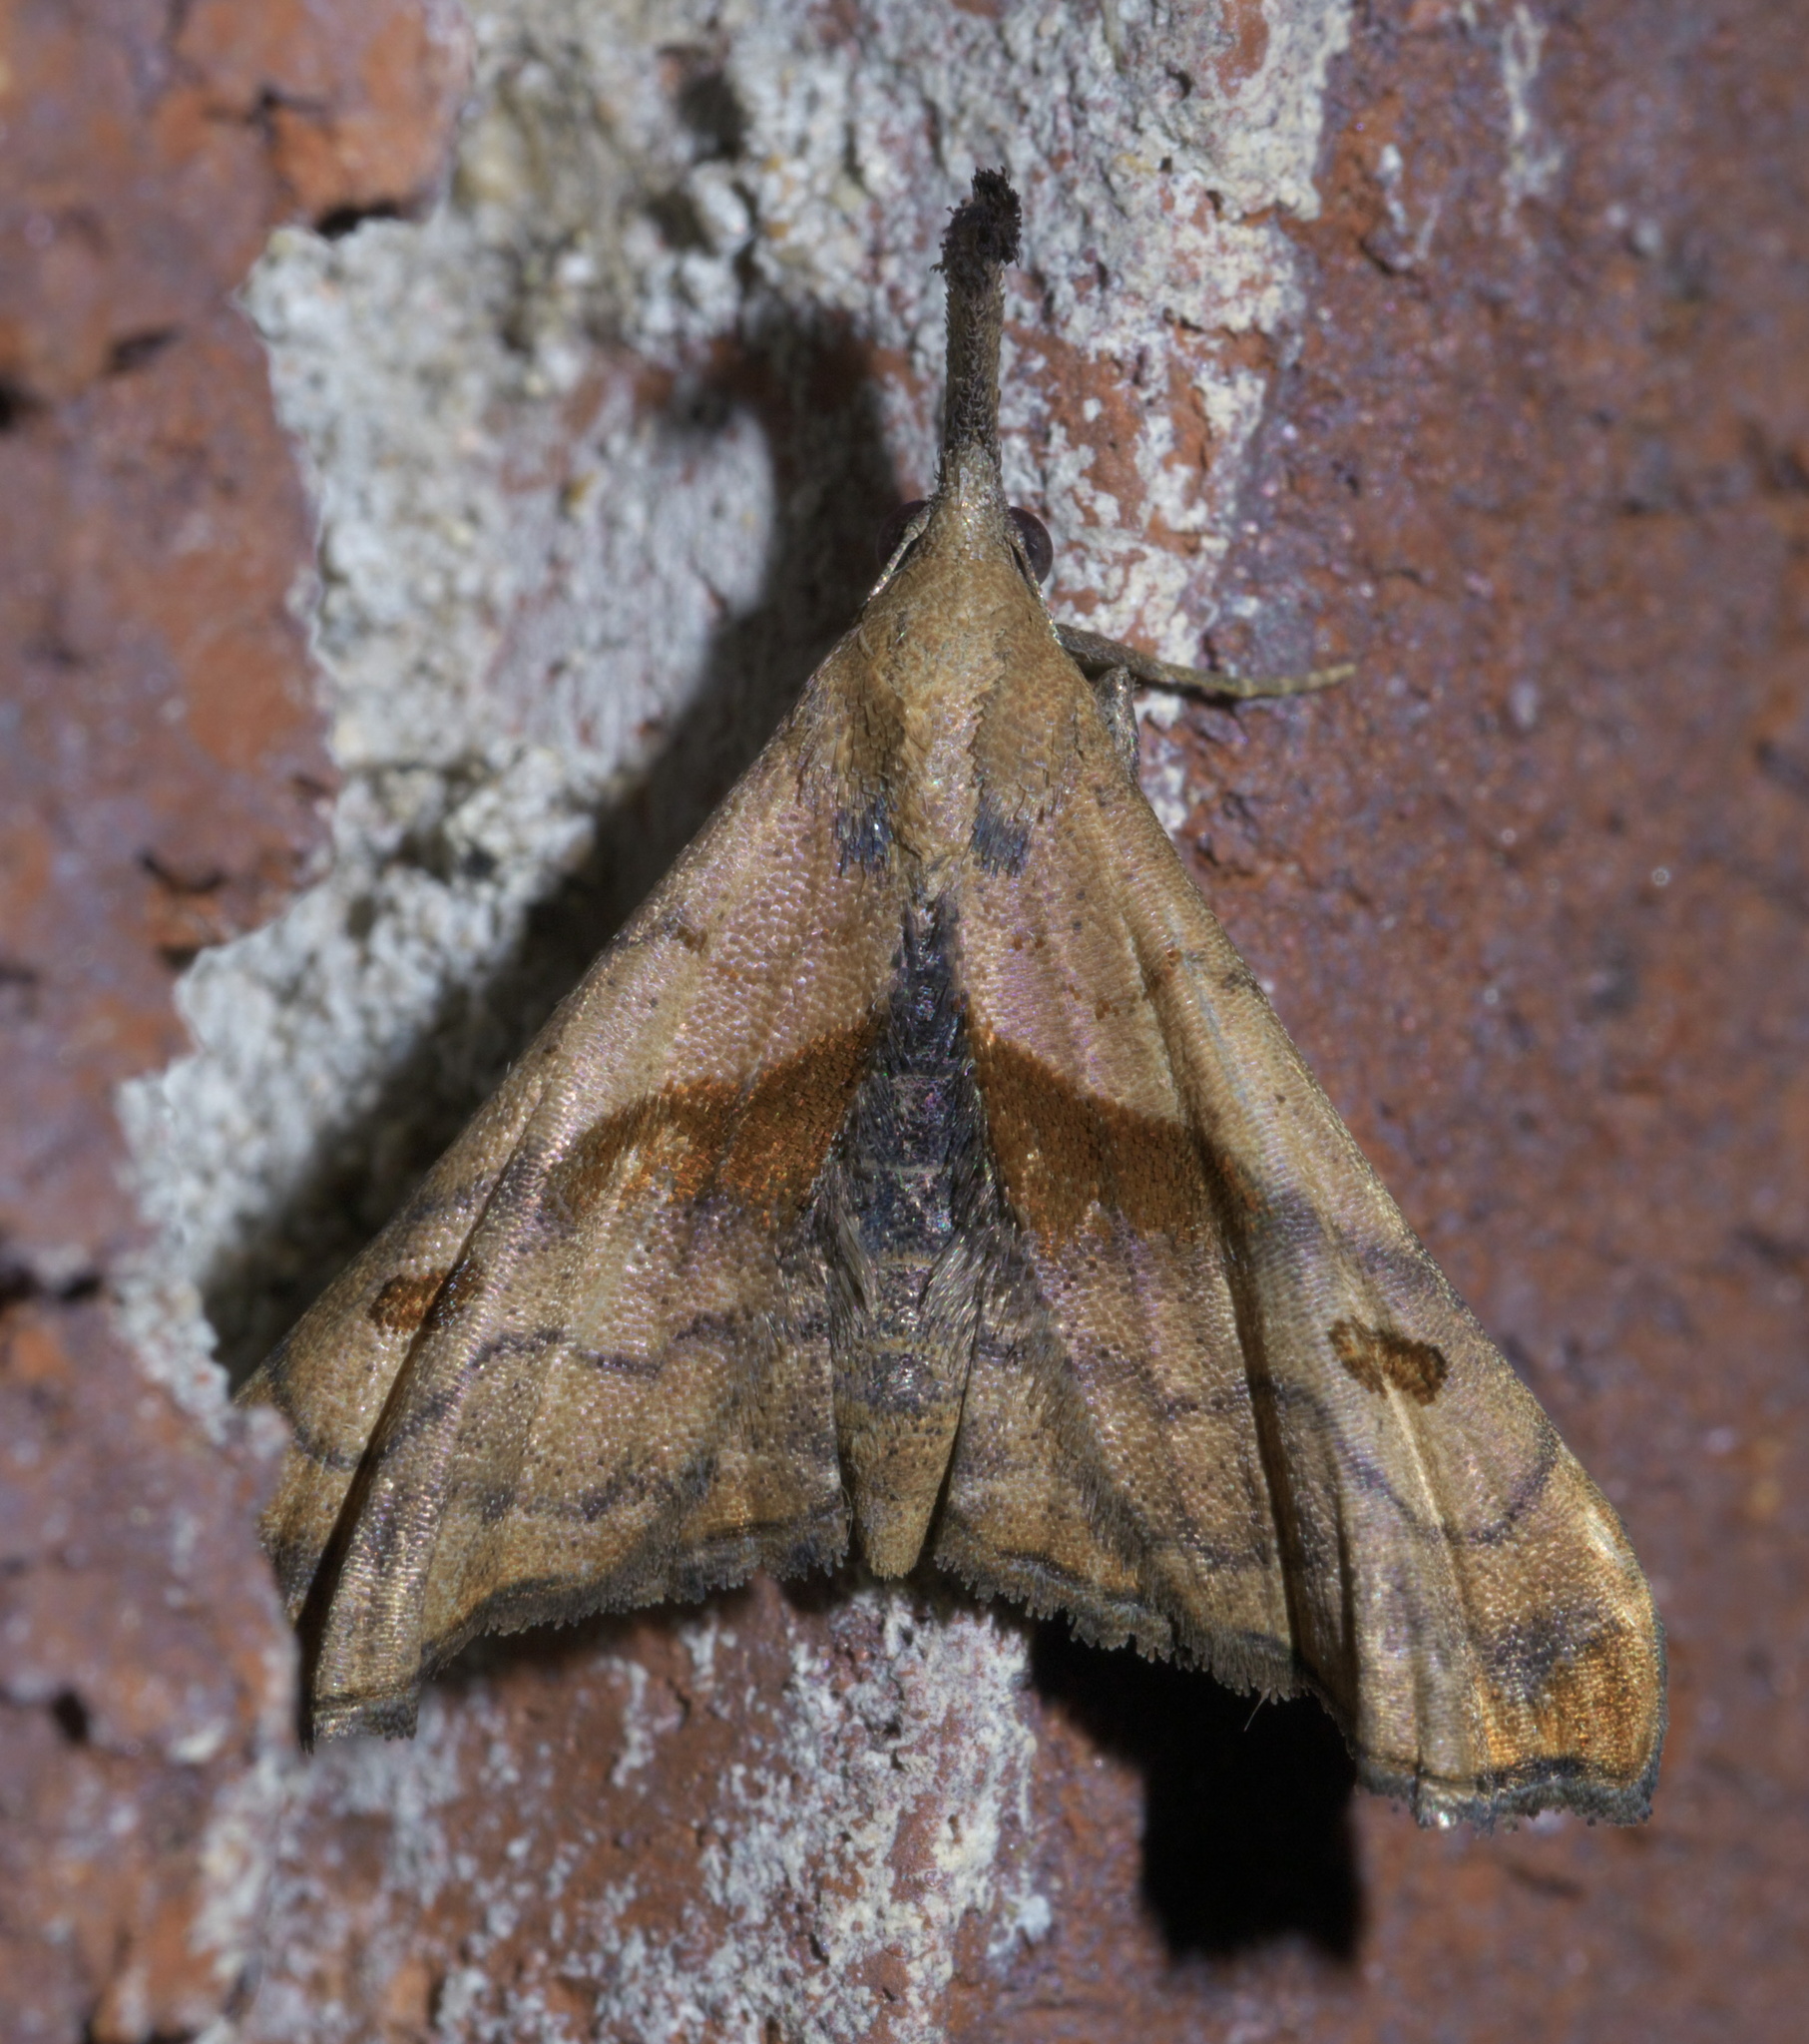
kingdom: Animalia
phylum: Arthropoda
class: Insecta
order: Lepidoptera
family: Erebidae
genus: Palthis
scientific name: Palthis angulalis
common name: Dark-spotted palthis moth
